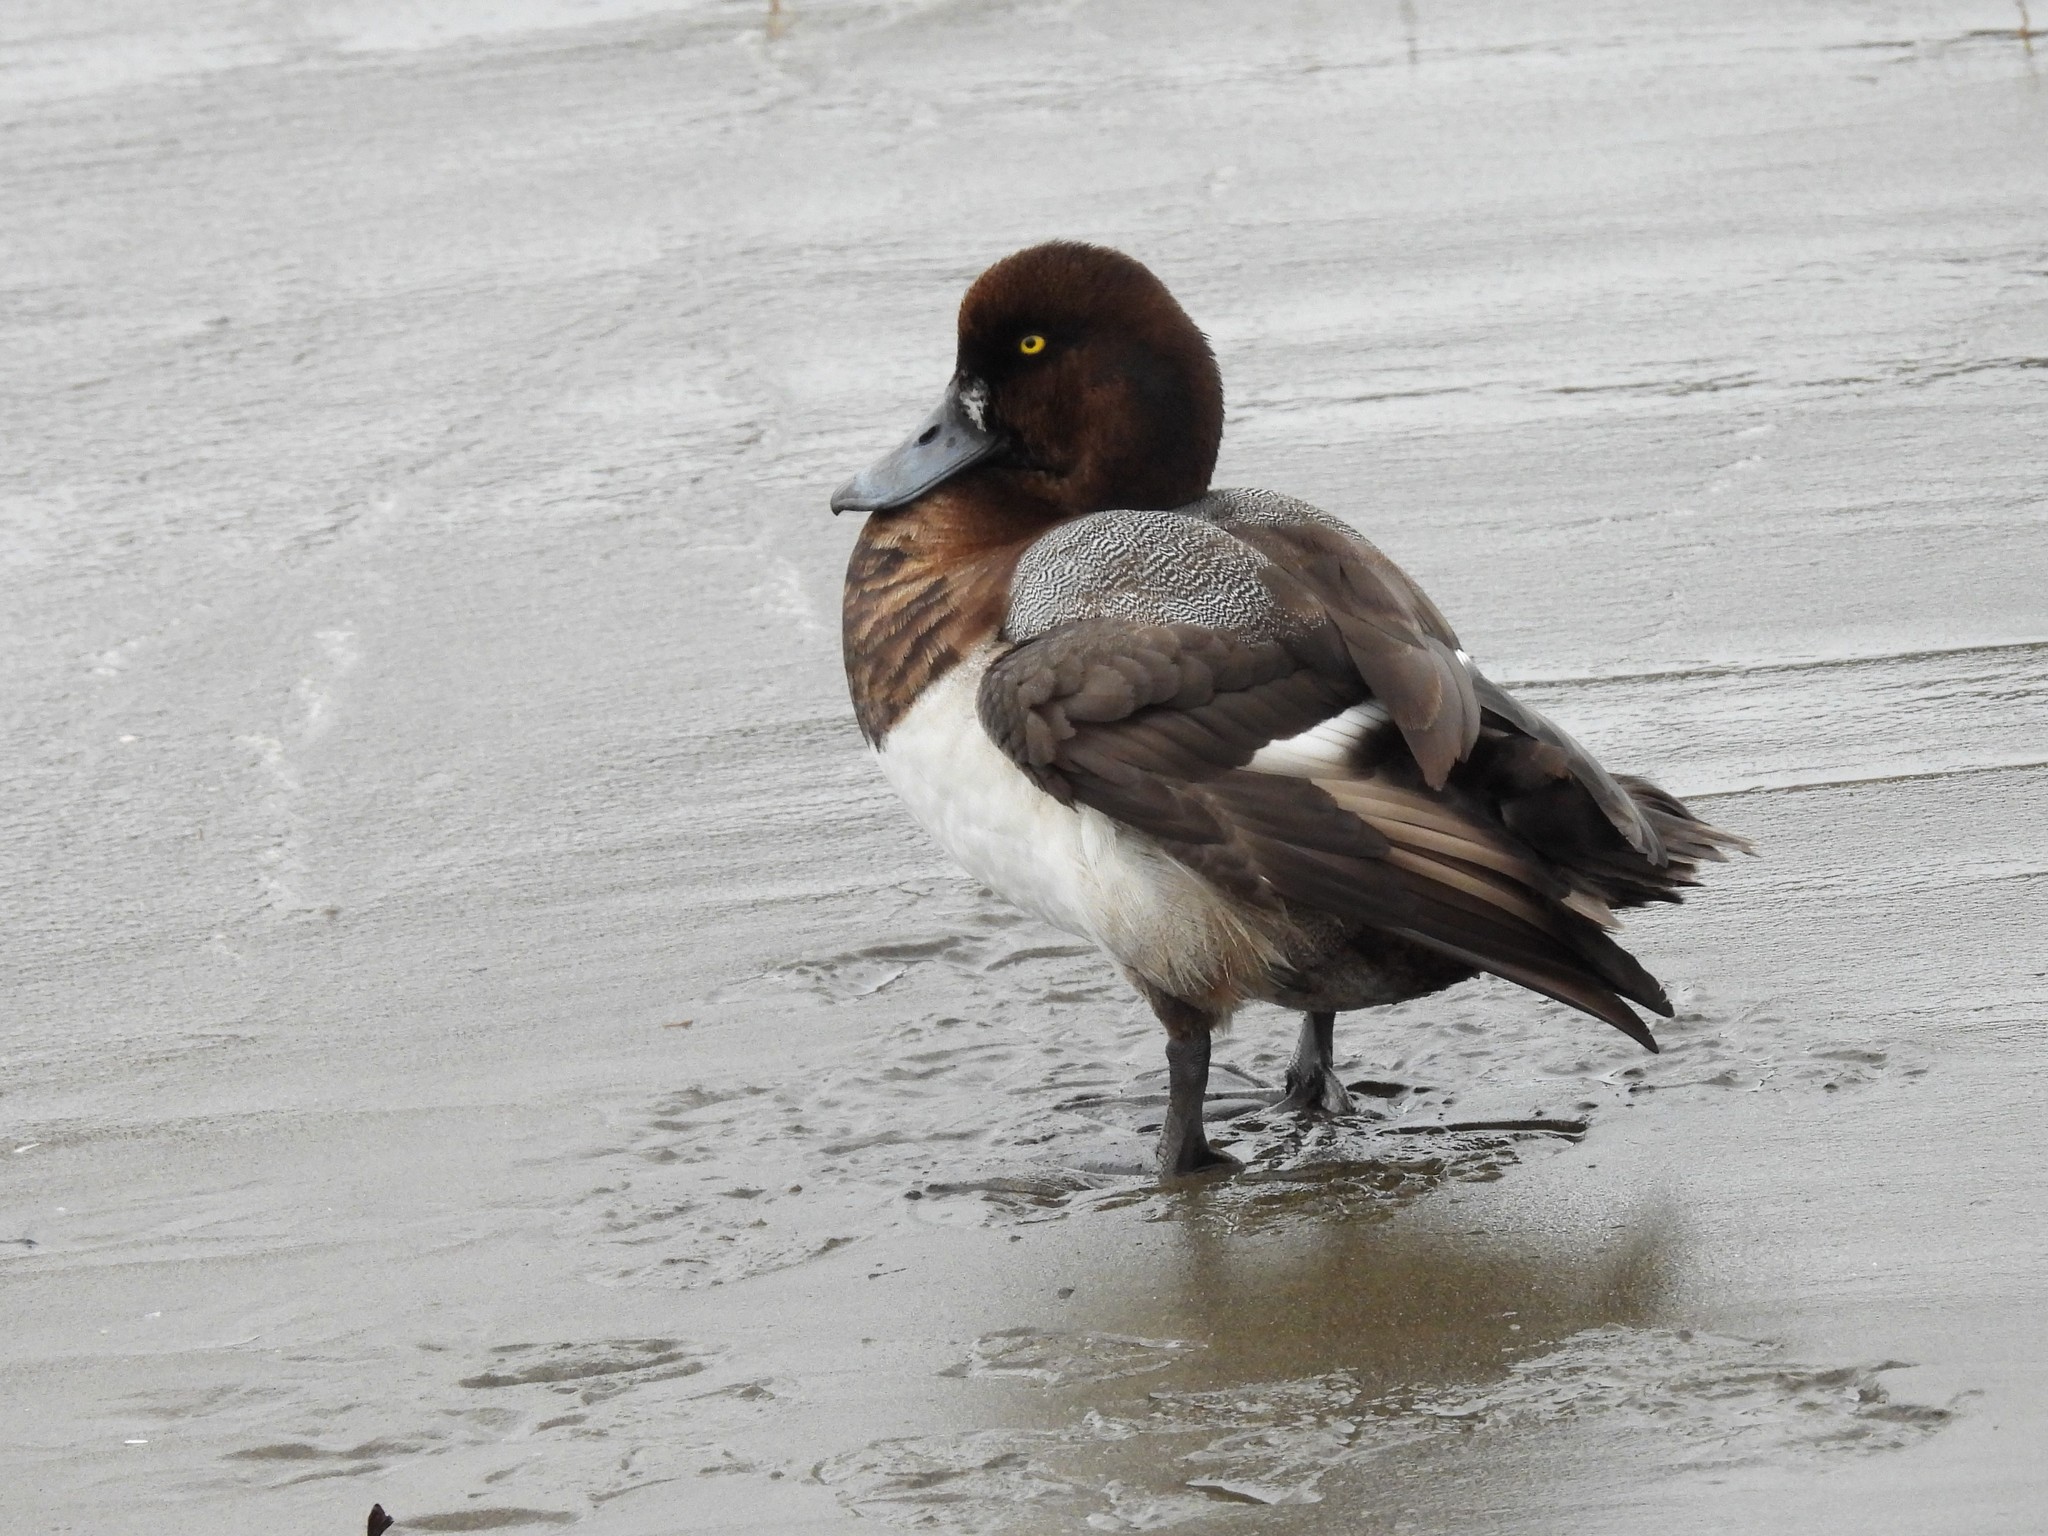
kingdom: Animalia
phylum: Chordata
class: Aves
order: Anseriformes
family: Anatidae
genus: Aythya
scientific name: Aythya marila
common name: Greater scaup
